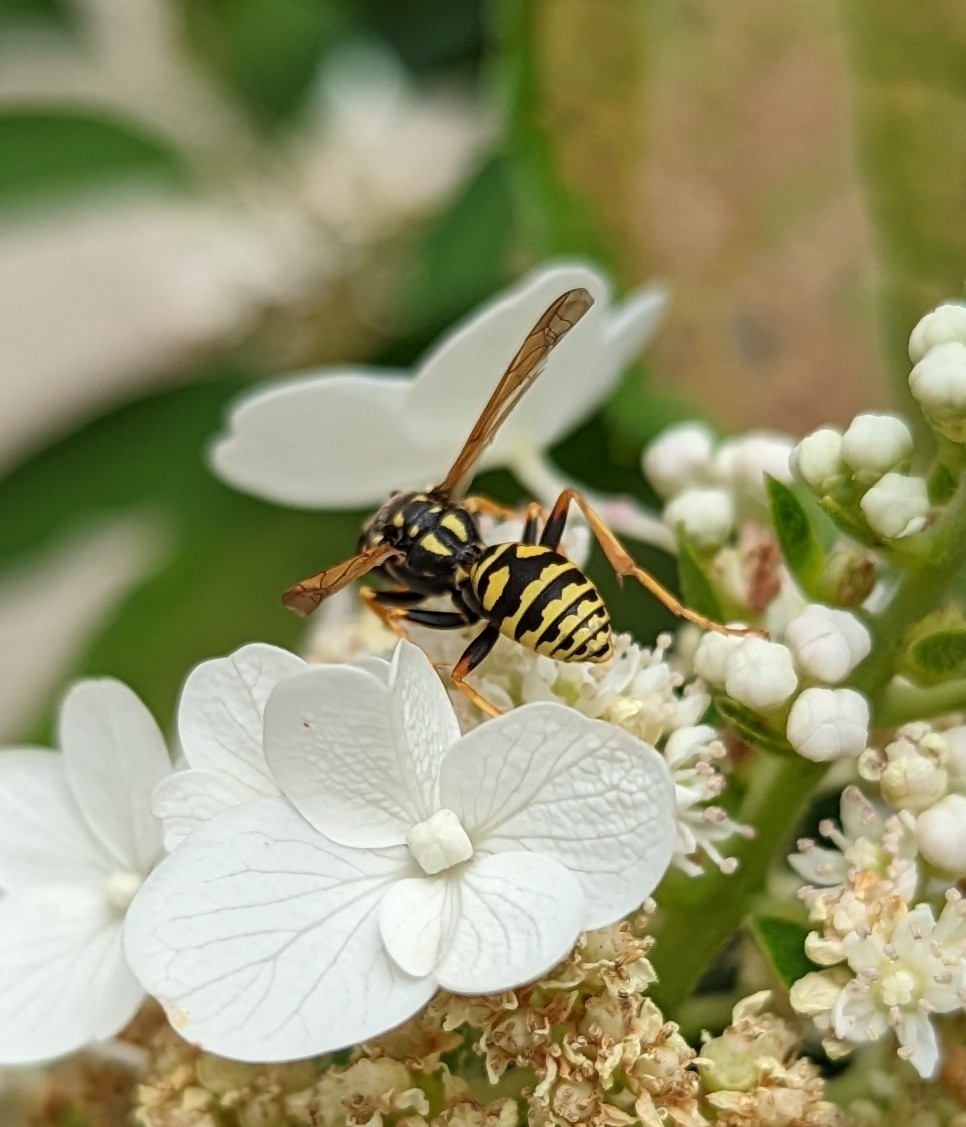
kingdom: Animalia
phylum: Arthropoda
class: Insecta
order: Hymenoptera
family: Eumenidae
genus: Polistes
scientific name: Polistes dominula
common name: Paper wasp
